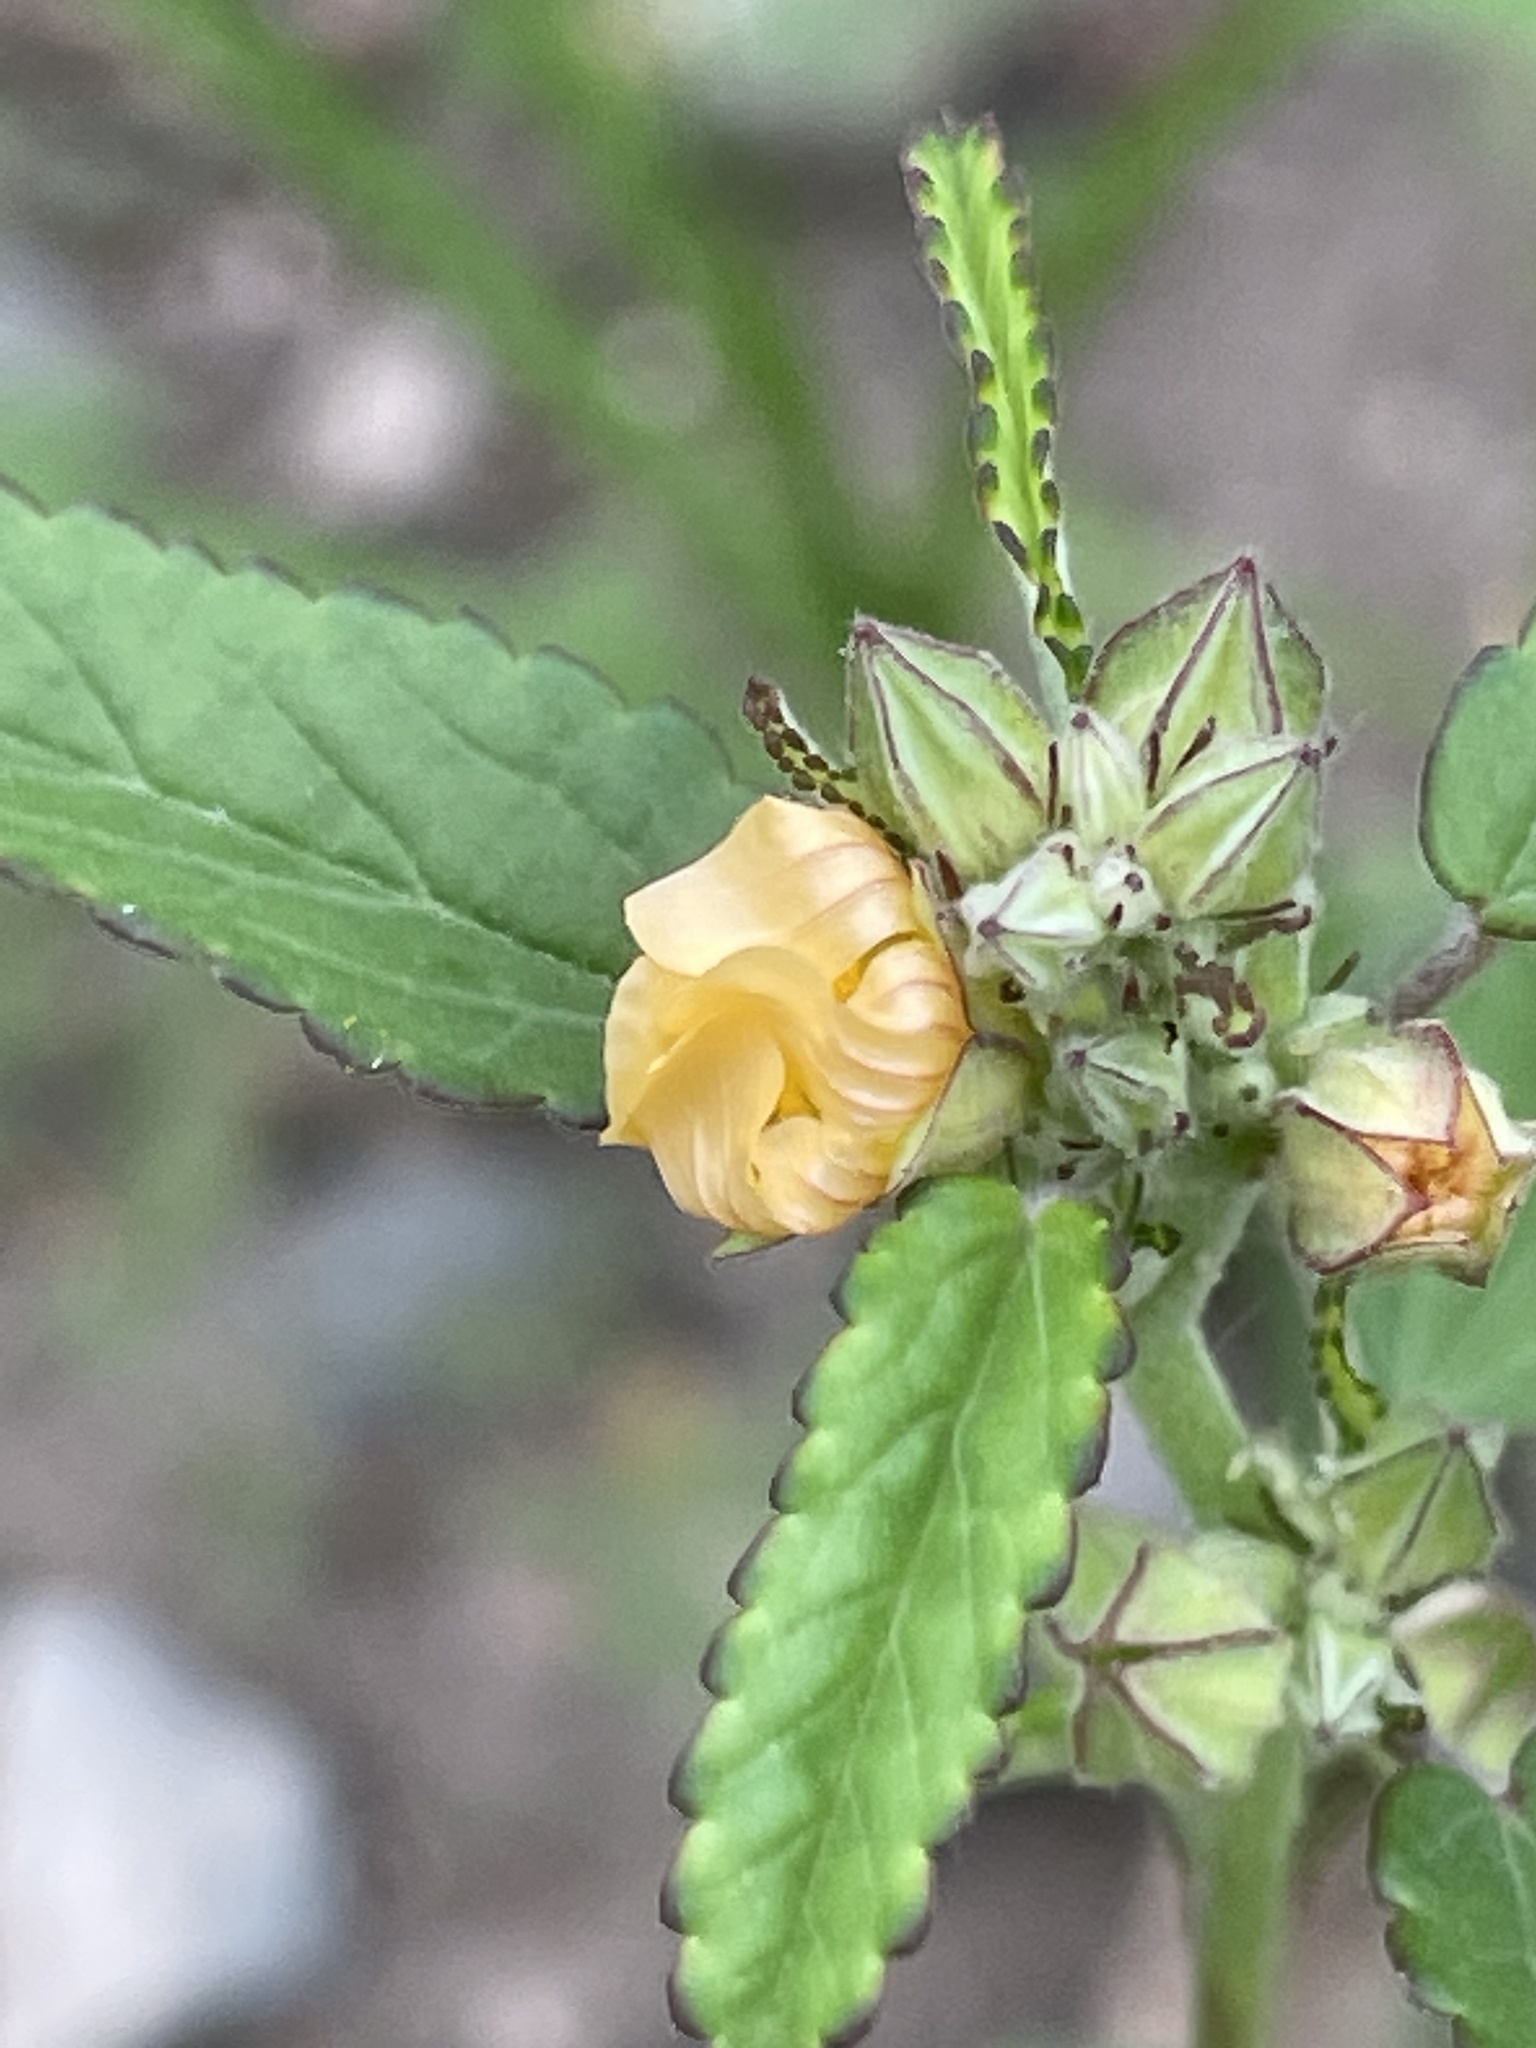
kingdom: Plantae
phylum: Tracheophyta
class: Magnoliopsida
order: Malvales
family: Malvaceae
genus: Sida
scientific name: Sida spinosa
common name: Prickly fanpetals
